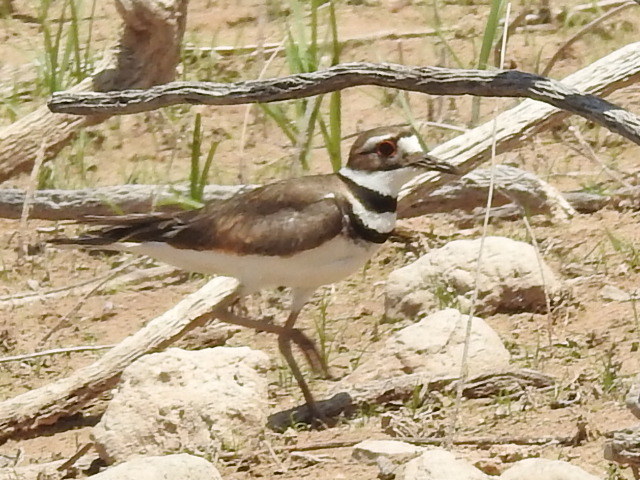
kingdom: Animalia
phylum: Chordata
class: Aves
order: Charadriiformes
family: Charadriidae
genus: Charadrius
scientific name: Charadrius vociferus
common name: Killdeer
